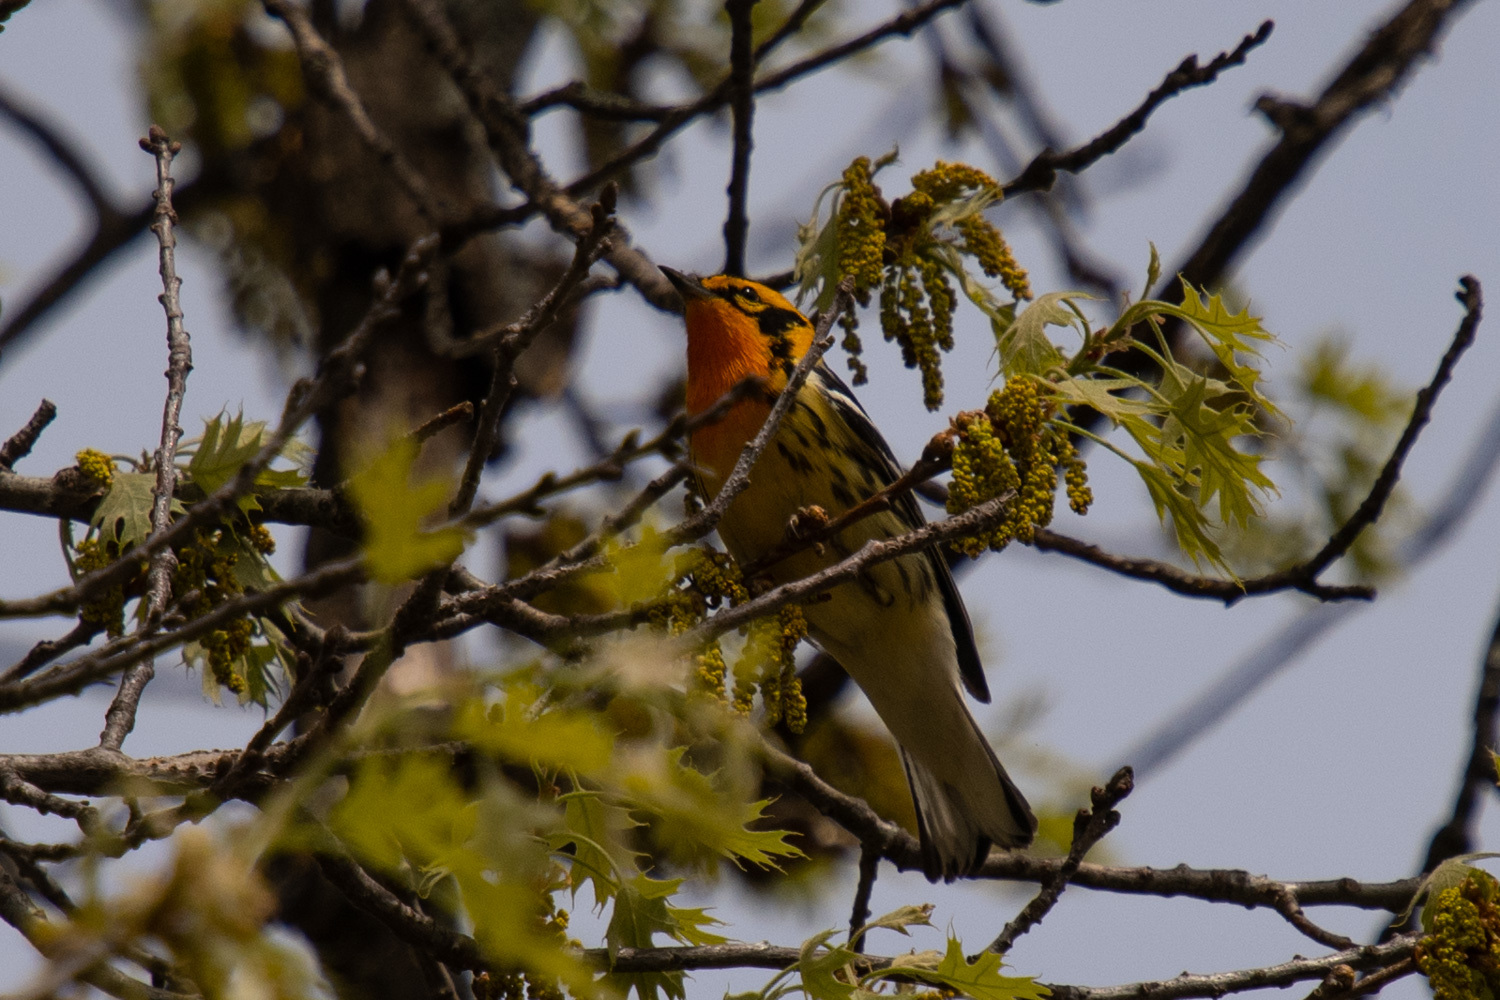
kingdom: Animalia
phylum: Chordata
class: Aves
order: Passeriformes
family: Parulidae
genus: Setophaga
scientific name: Setophaga fusca
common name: Blackburnian warbler
